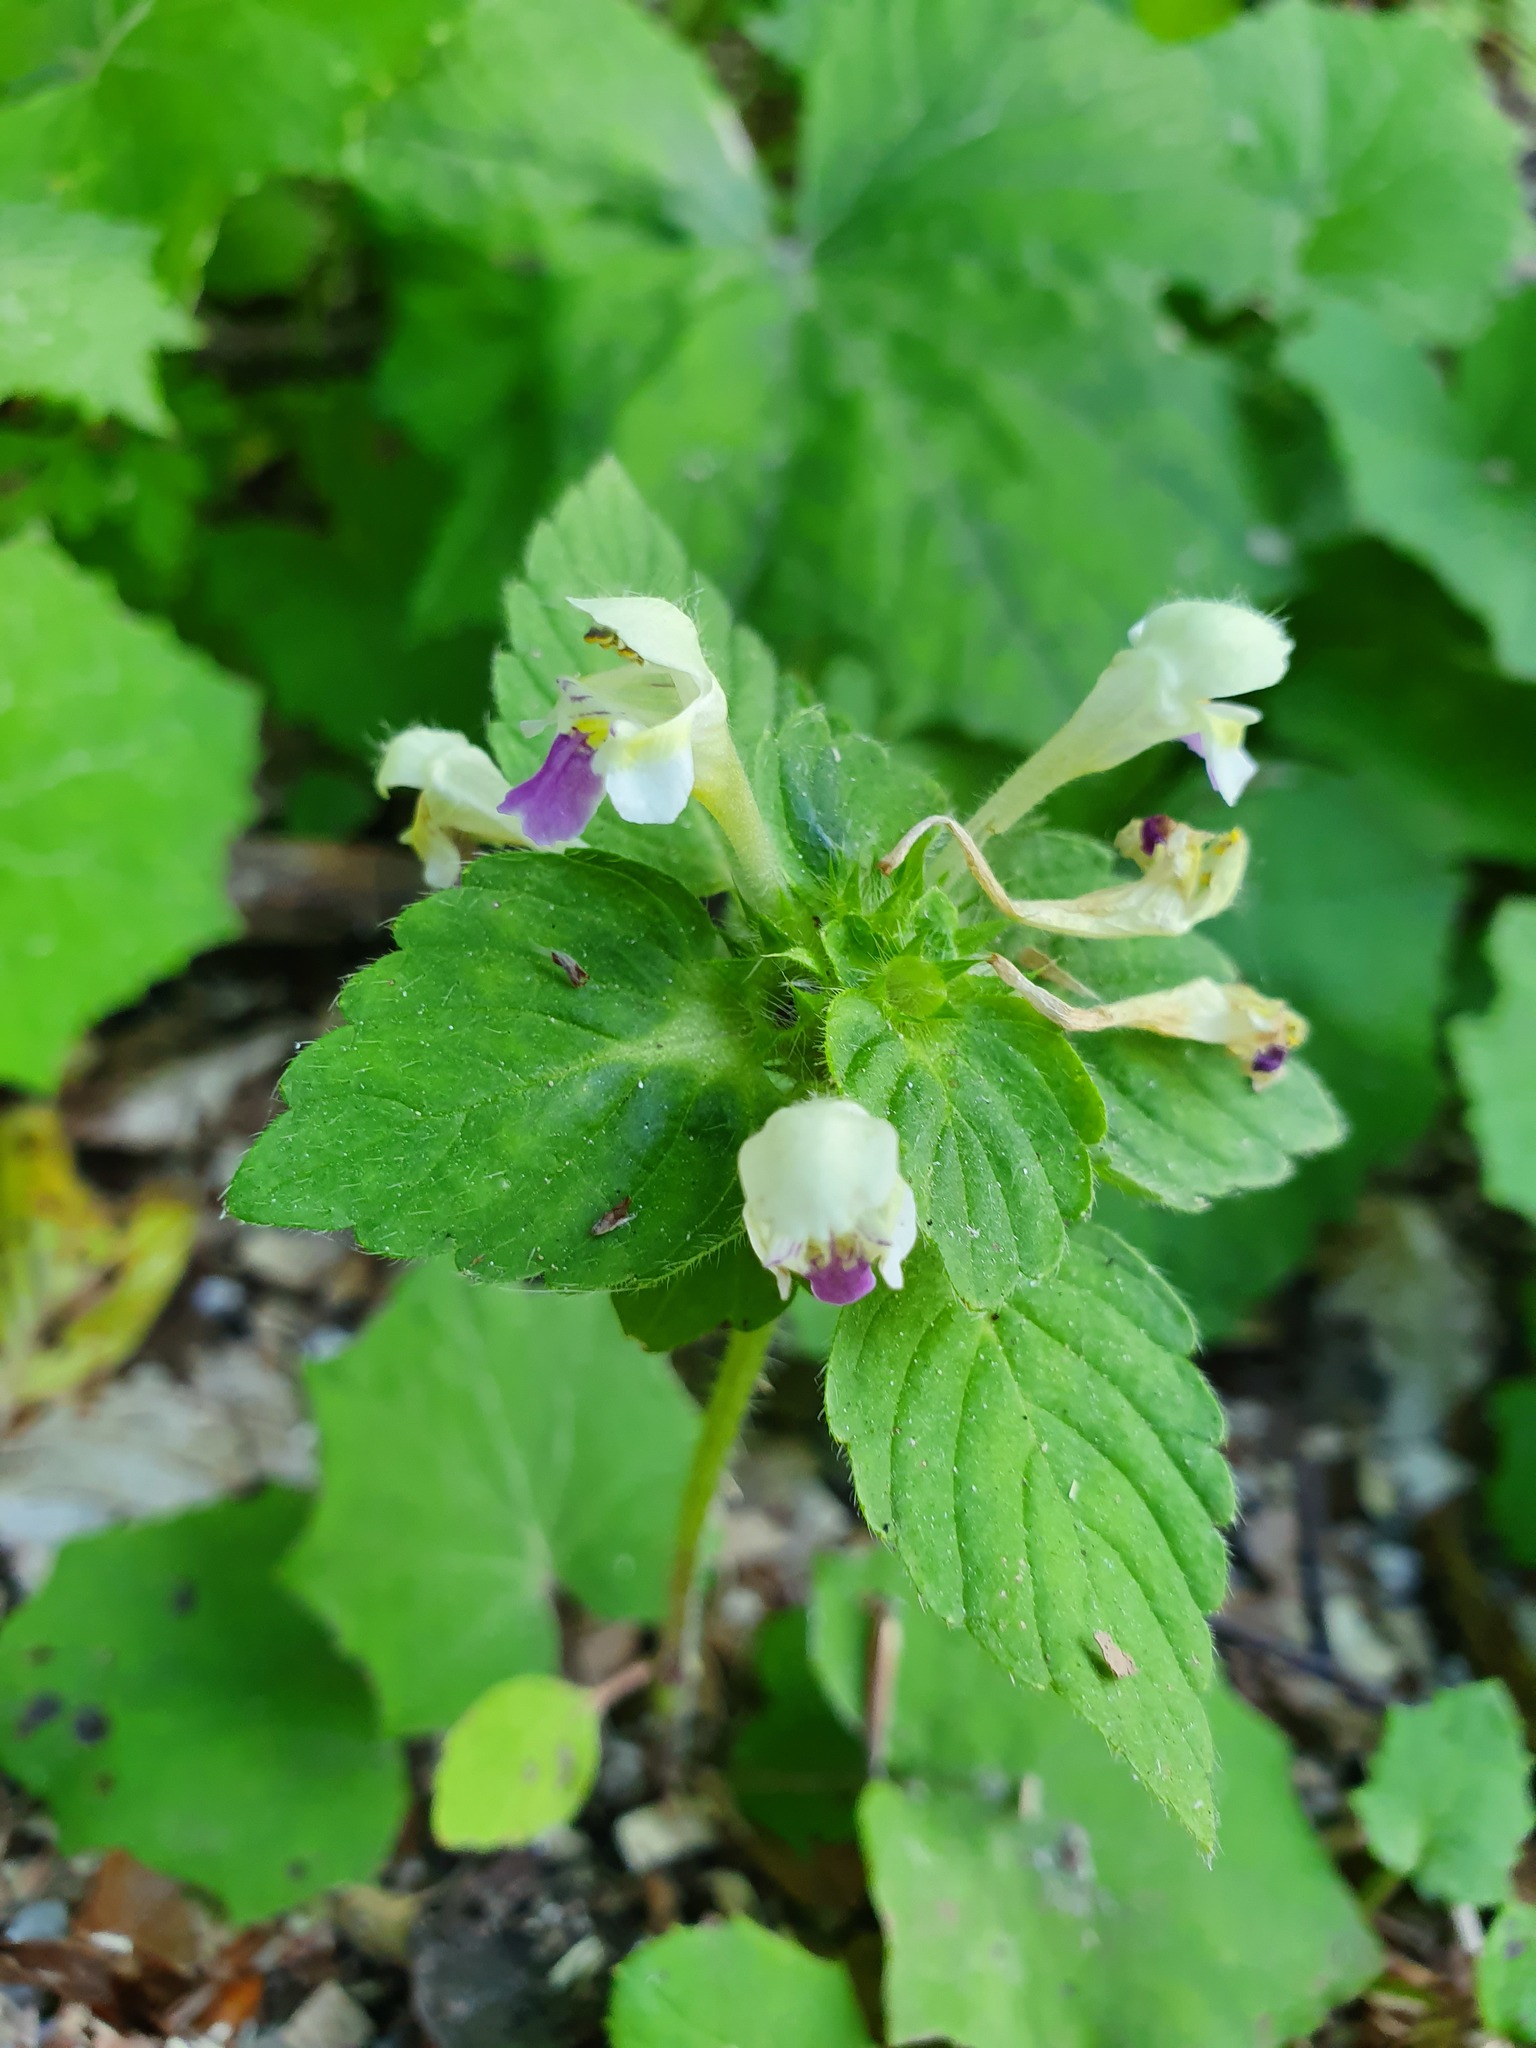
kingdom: Plantae
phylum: Tracheophyta
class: Magnoliopsida
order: Lamiales
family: Lamiaceae
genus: Galeopsis
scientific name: Galeopsis speciosa
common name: Large-flowered hemp-nettle
